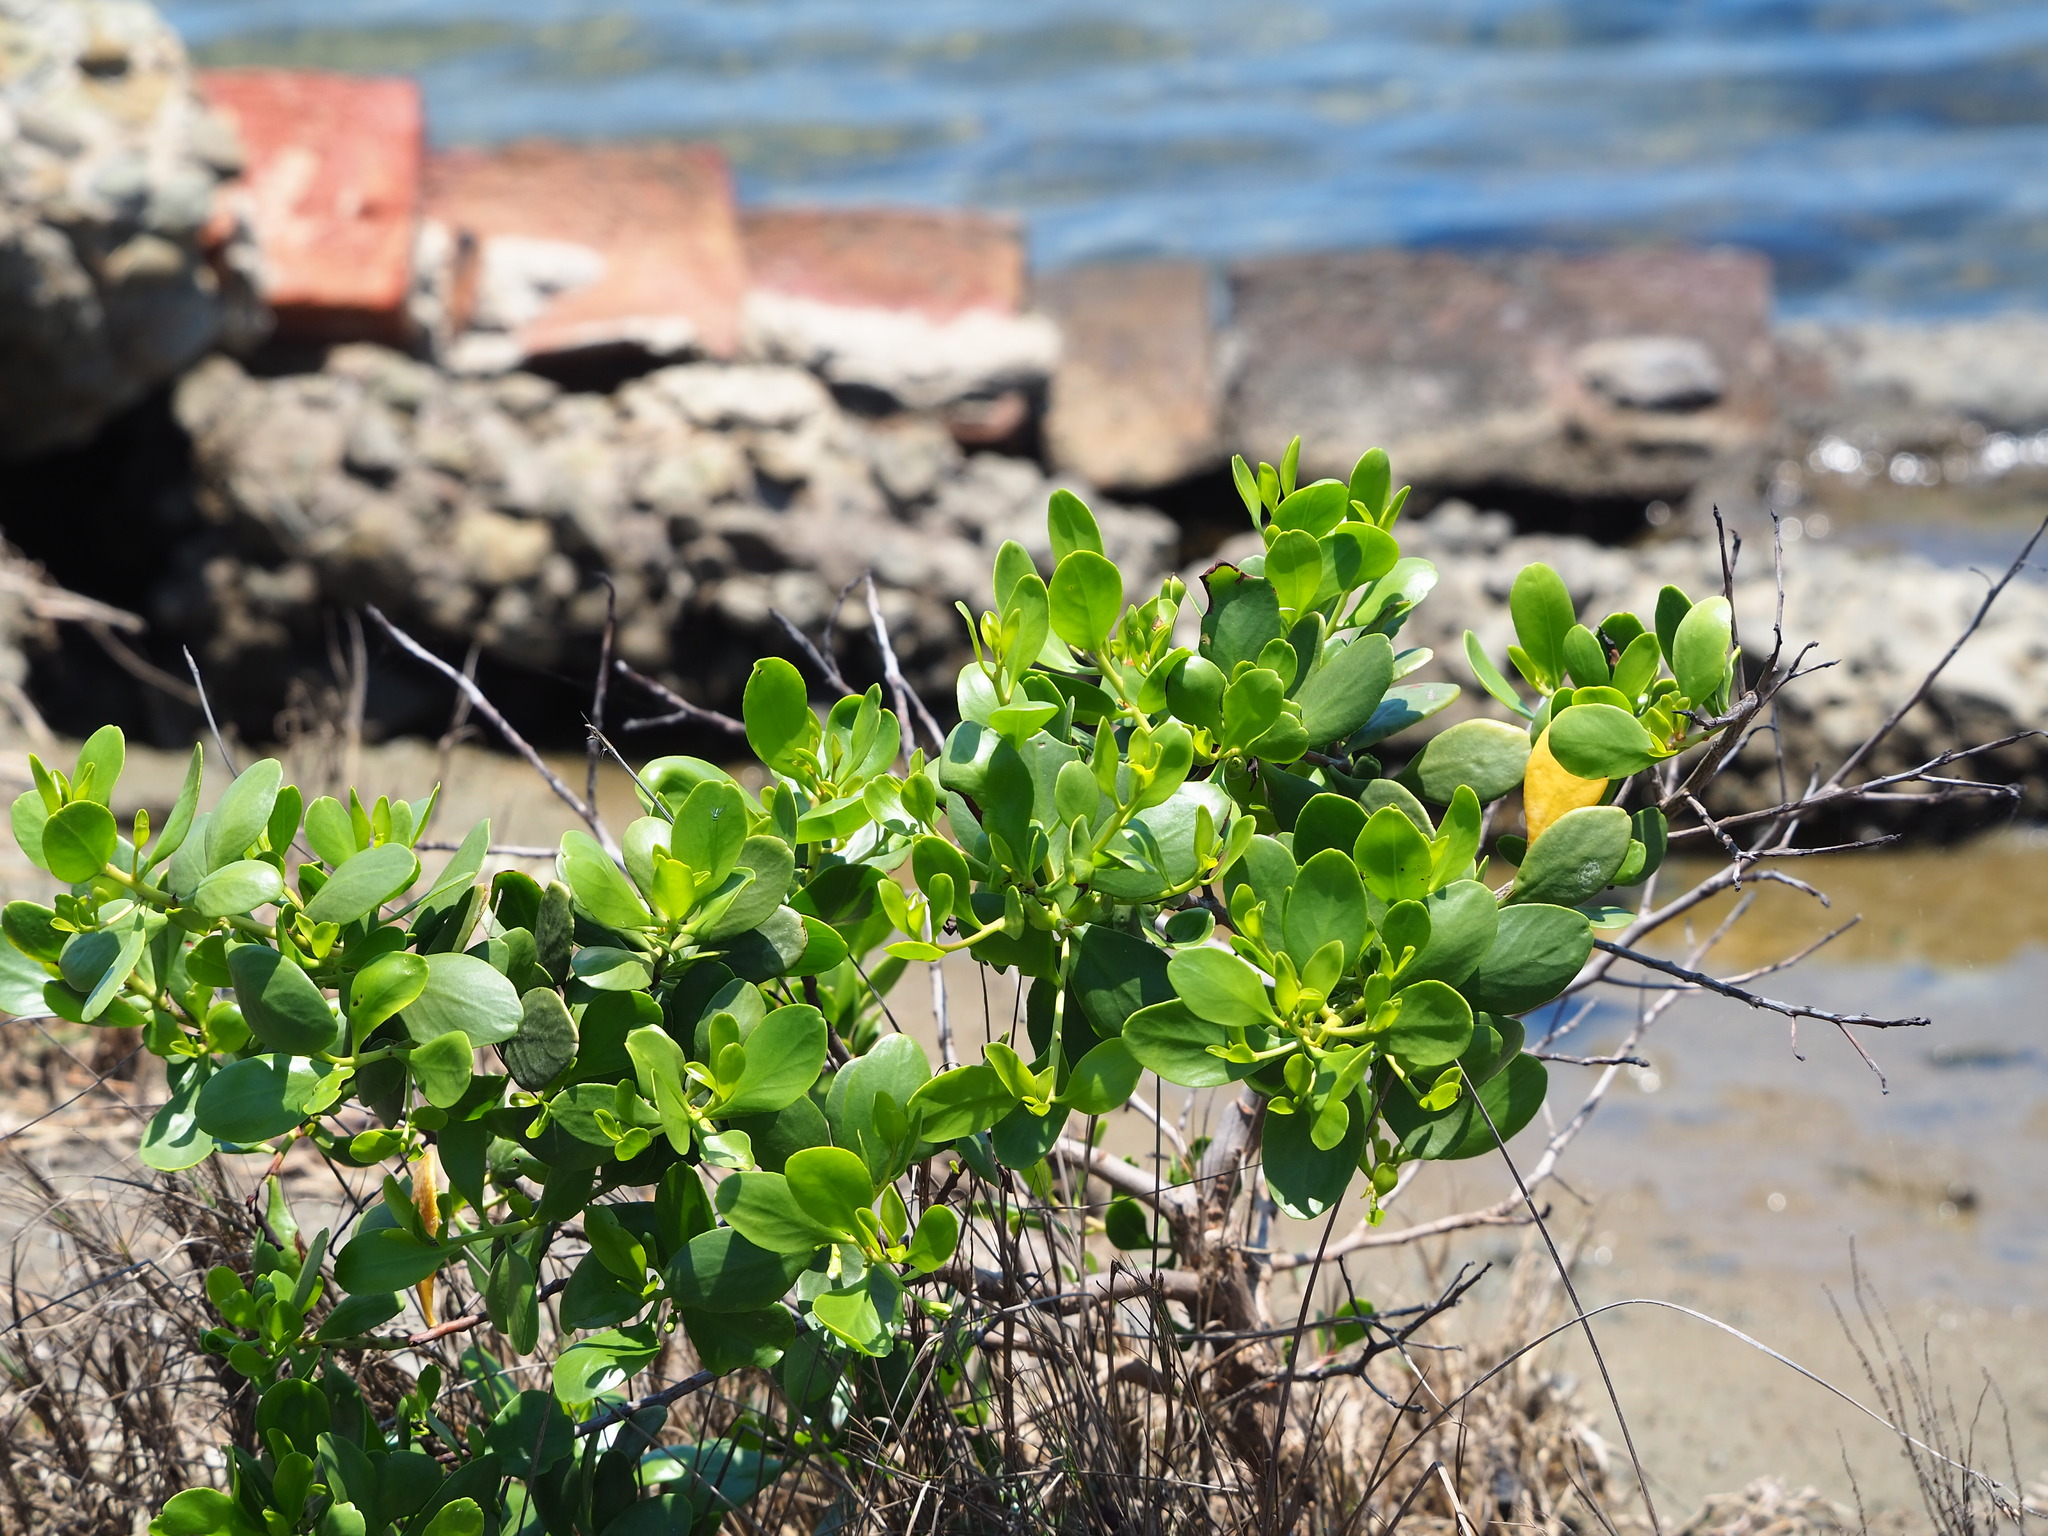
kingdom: Plantae
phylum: Tracheophyta
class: Magnoliopsida
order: Myrtales
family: Combretaceae
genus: Lumnitzera
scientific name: Lumnitzera racemosa
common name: White-flowered black mangrove
